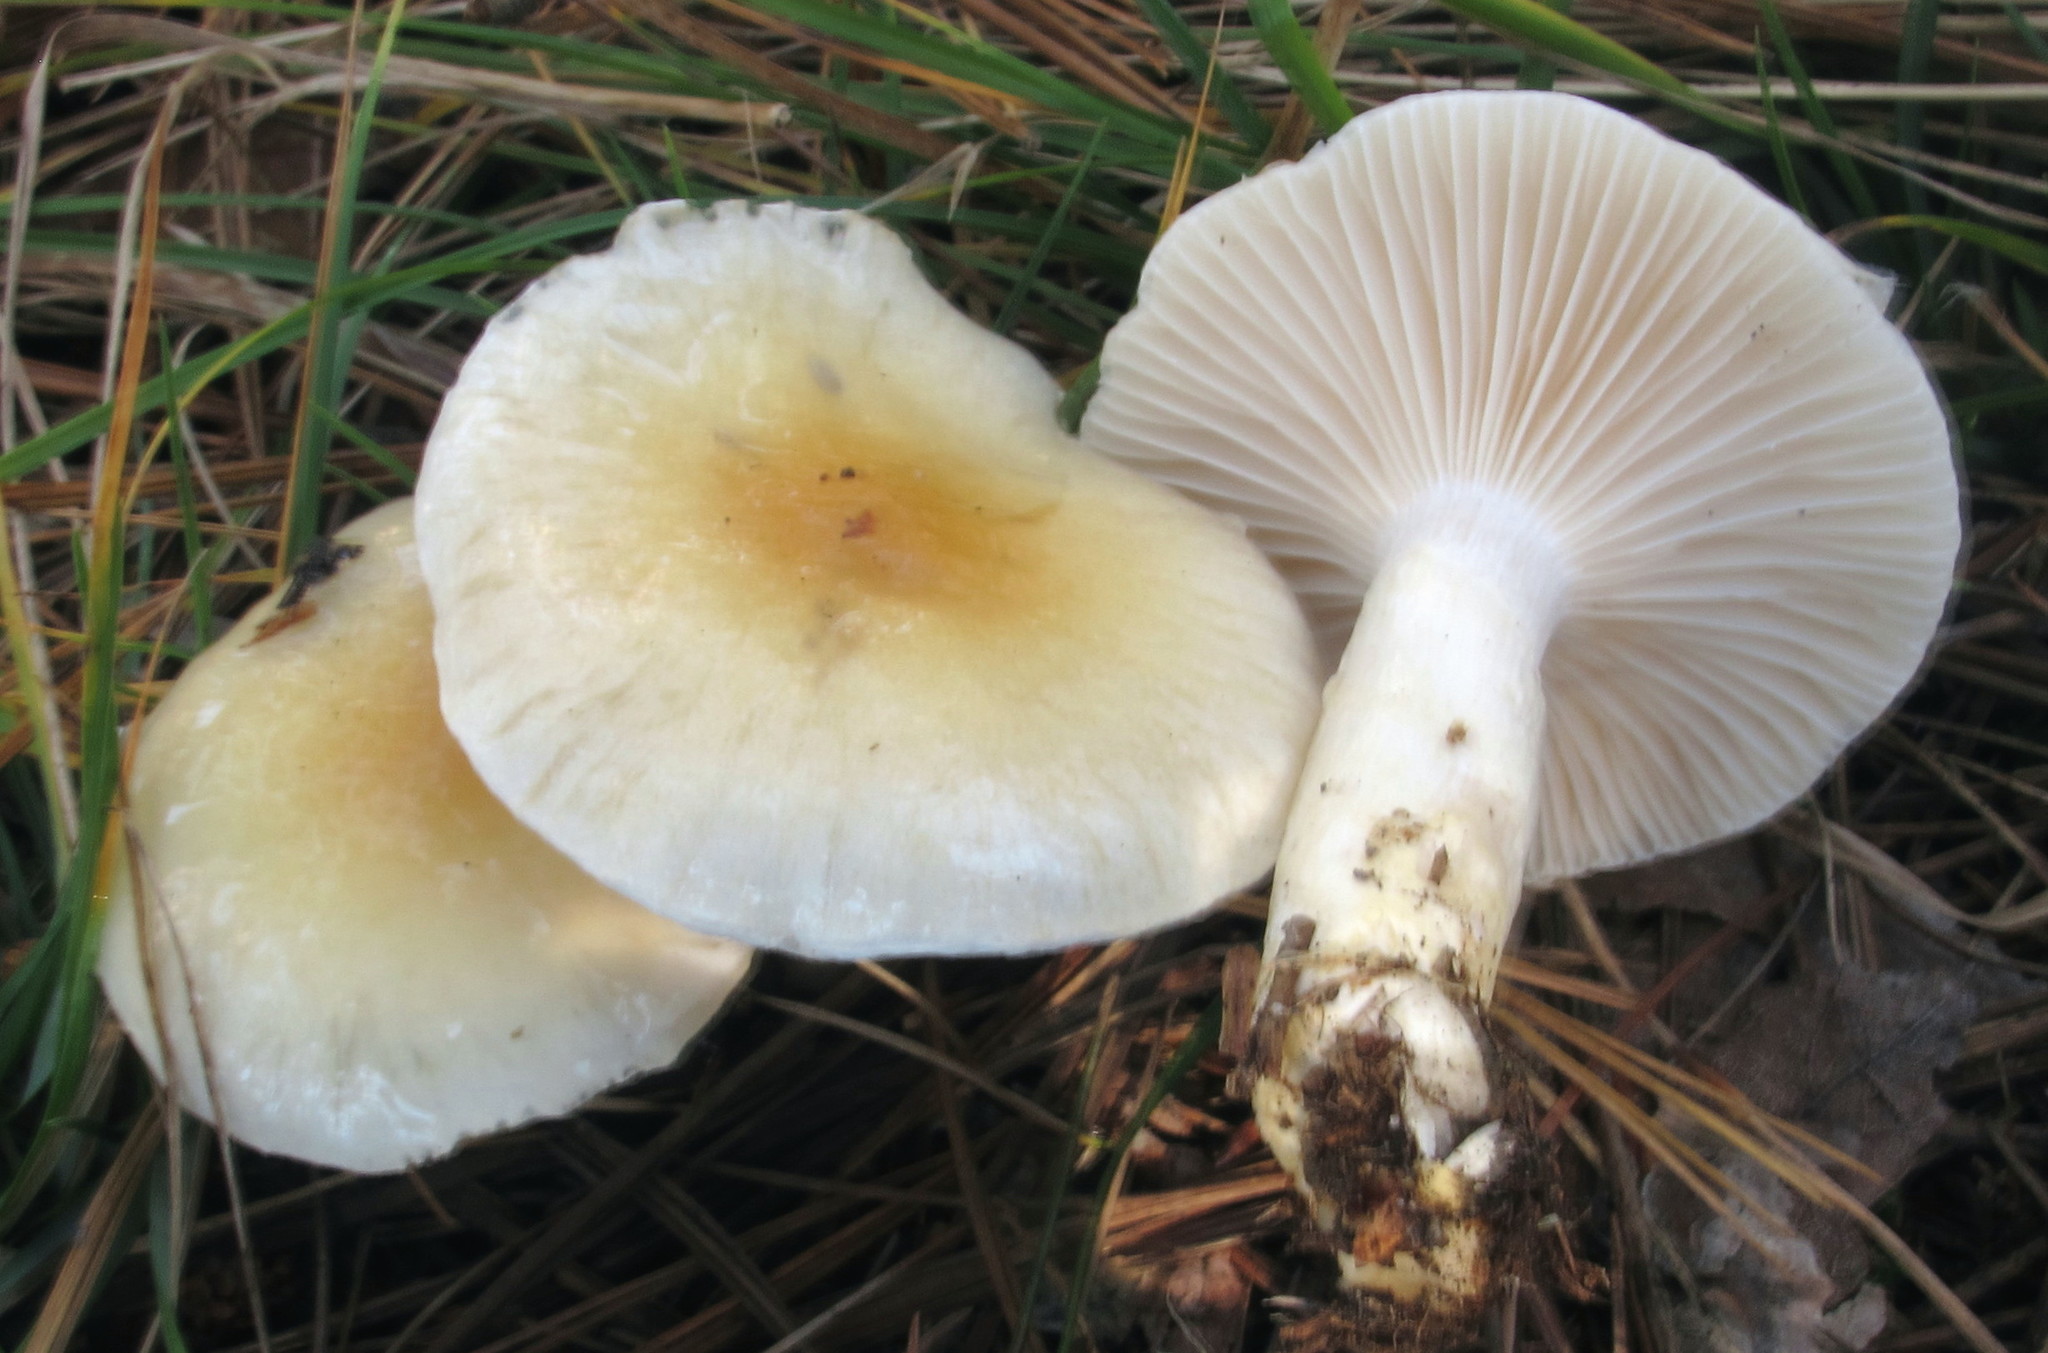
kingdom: Fungi
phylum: Basidiomycota
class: Agaricomycetes
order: Agaricales
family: Hygrophoraceae
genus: Hygrophorus
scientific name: Hygrophorus ligatus
